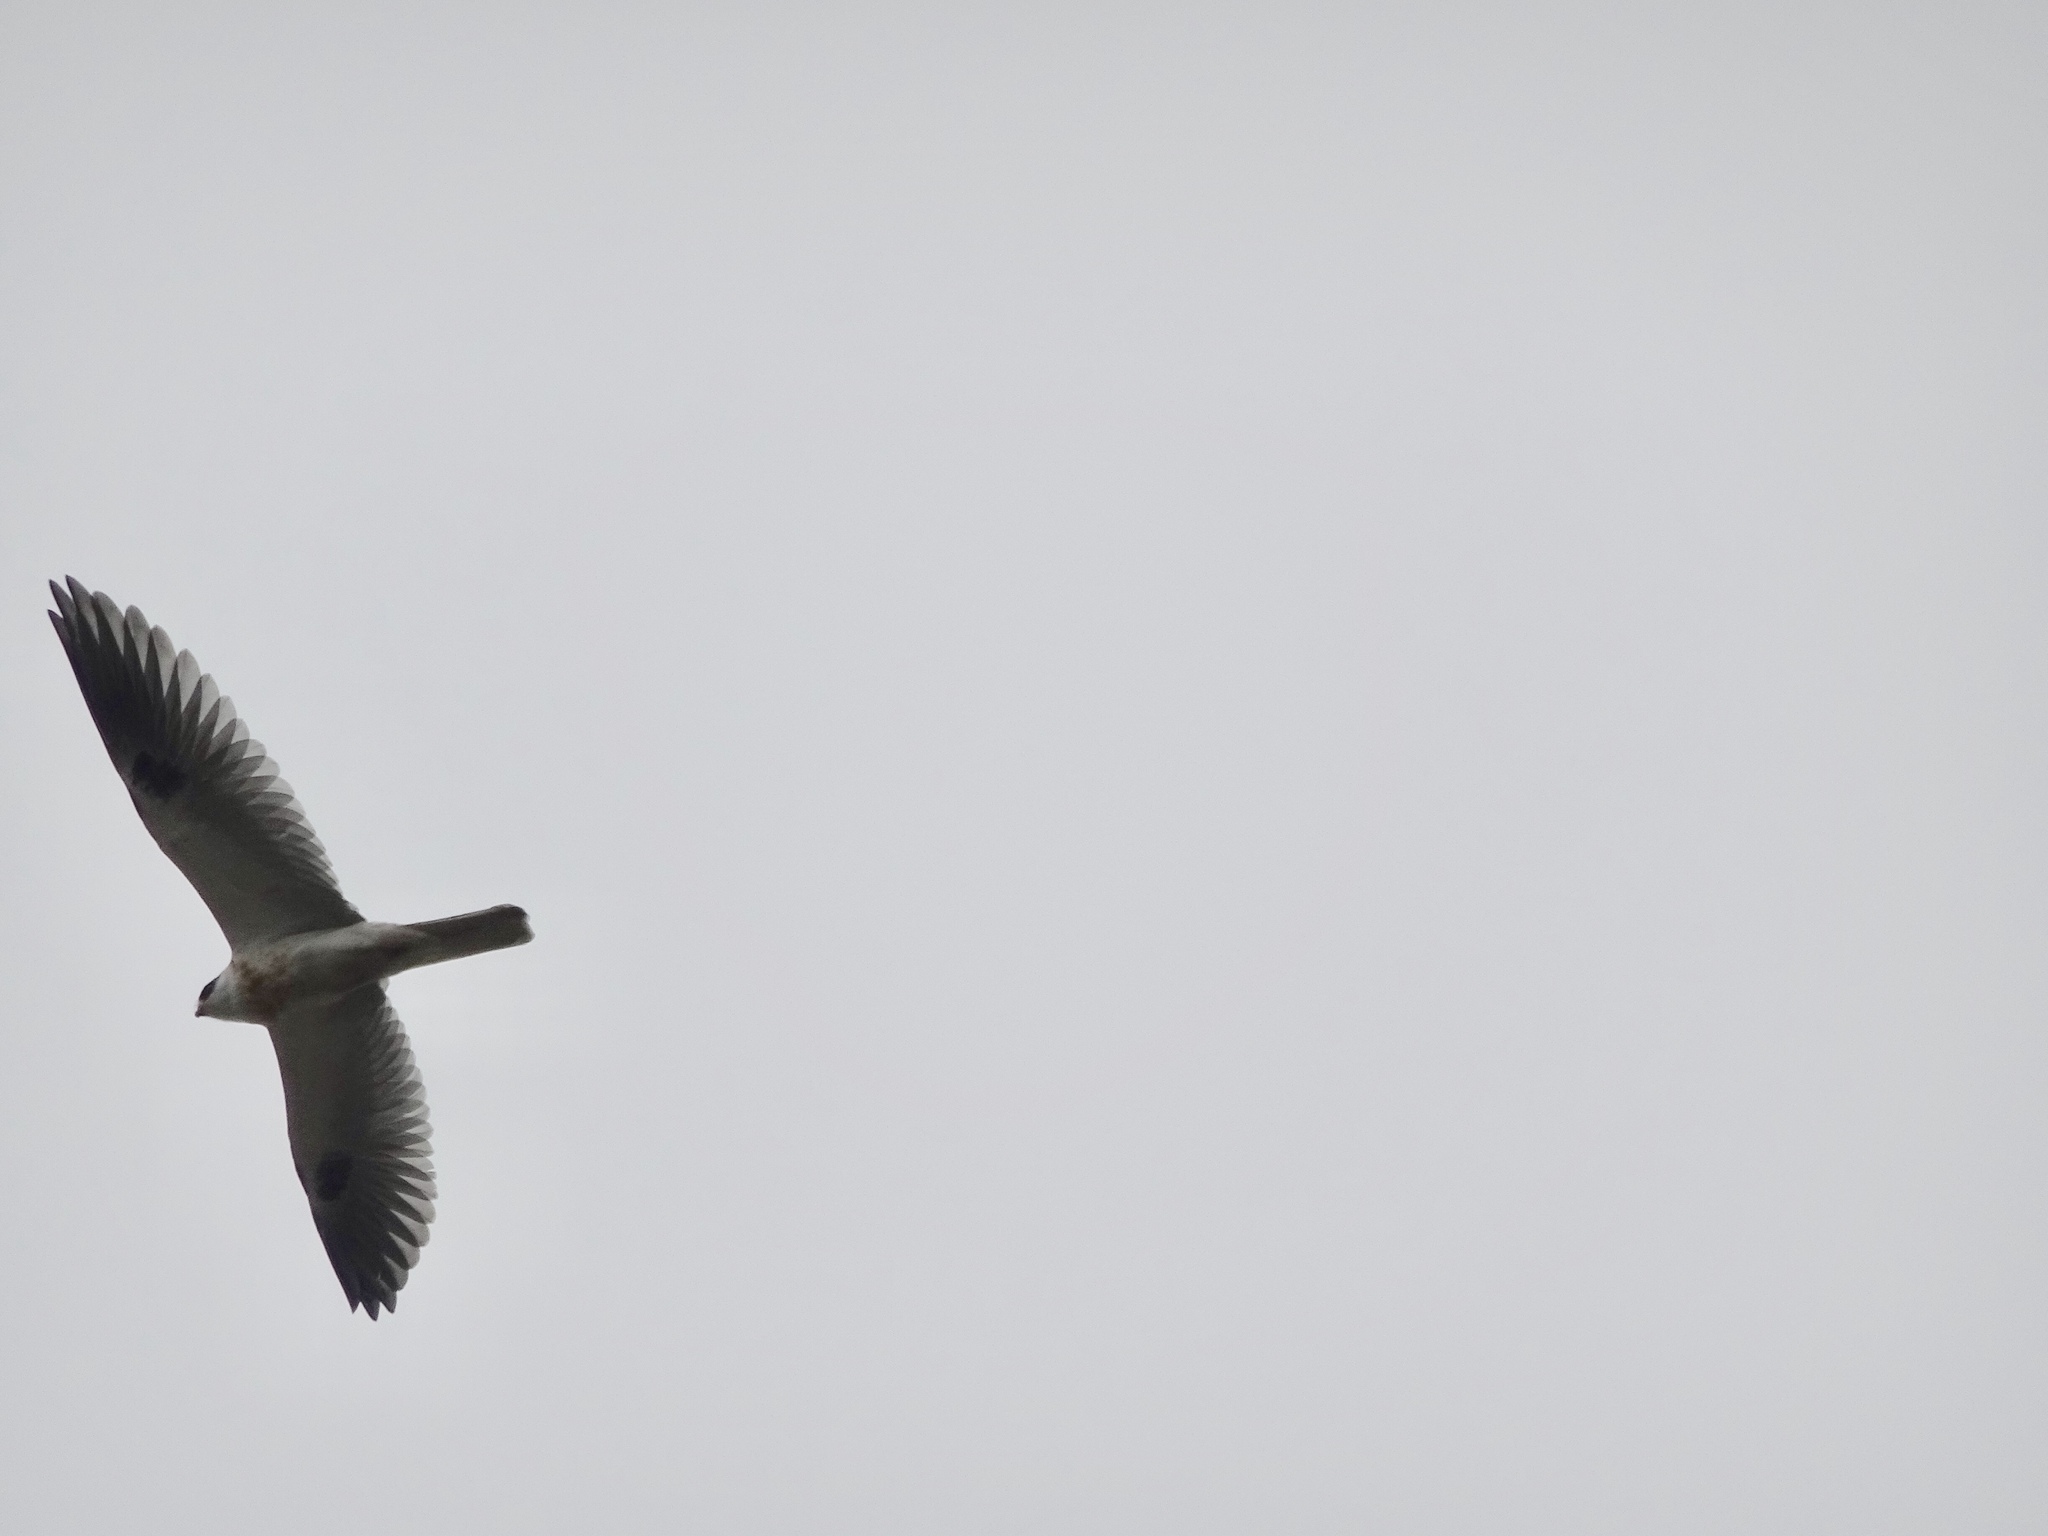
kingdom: Animalia
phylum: Chordata
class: Aves
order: Accipitriformes
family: Accipitridae
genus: Elanus
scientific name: Elanus leucurus
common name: White-tailed kite
